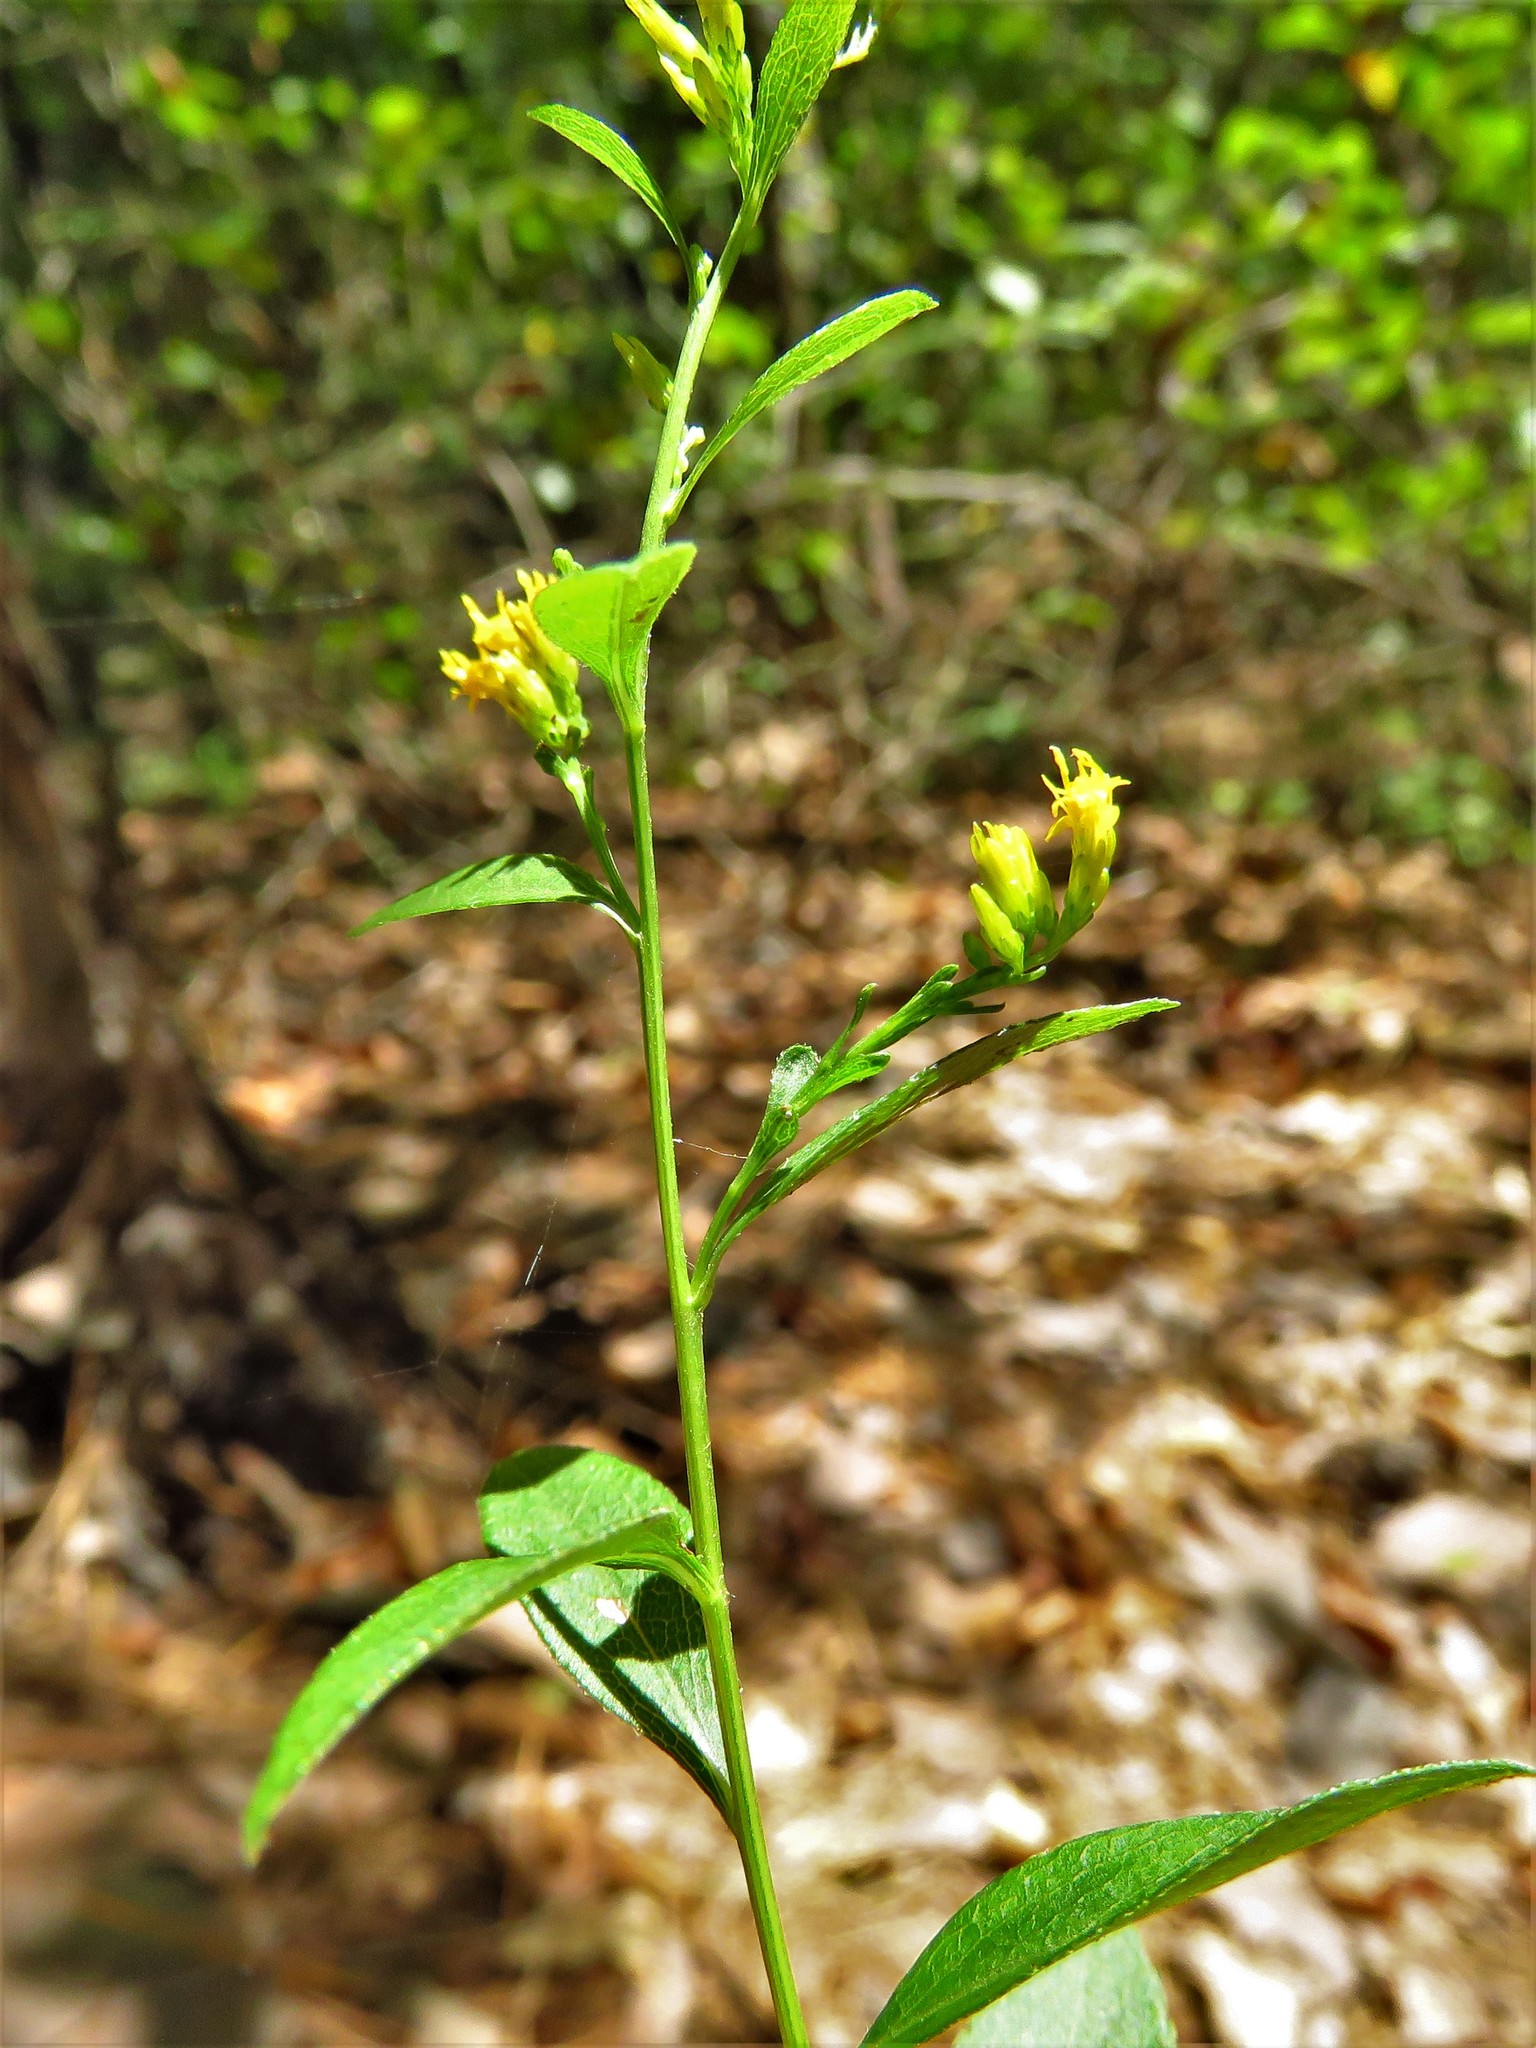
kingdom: Plantae
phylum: Tracheophyta
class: Magnoliopsida
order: Asterales
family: Asteraceae
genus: Solidago
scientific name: Solidago ludoviciana
